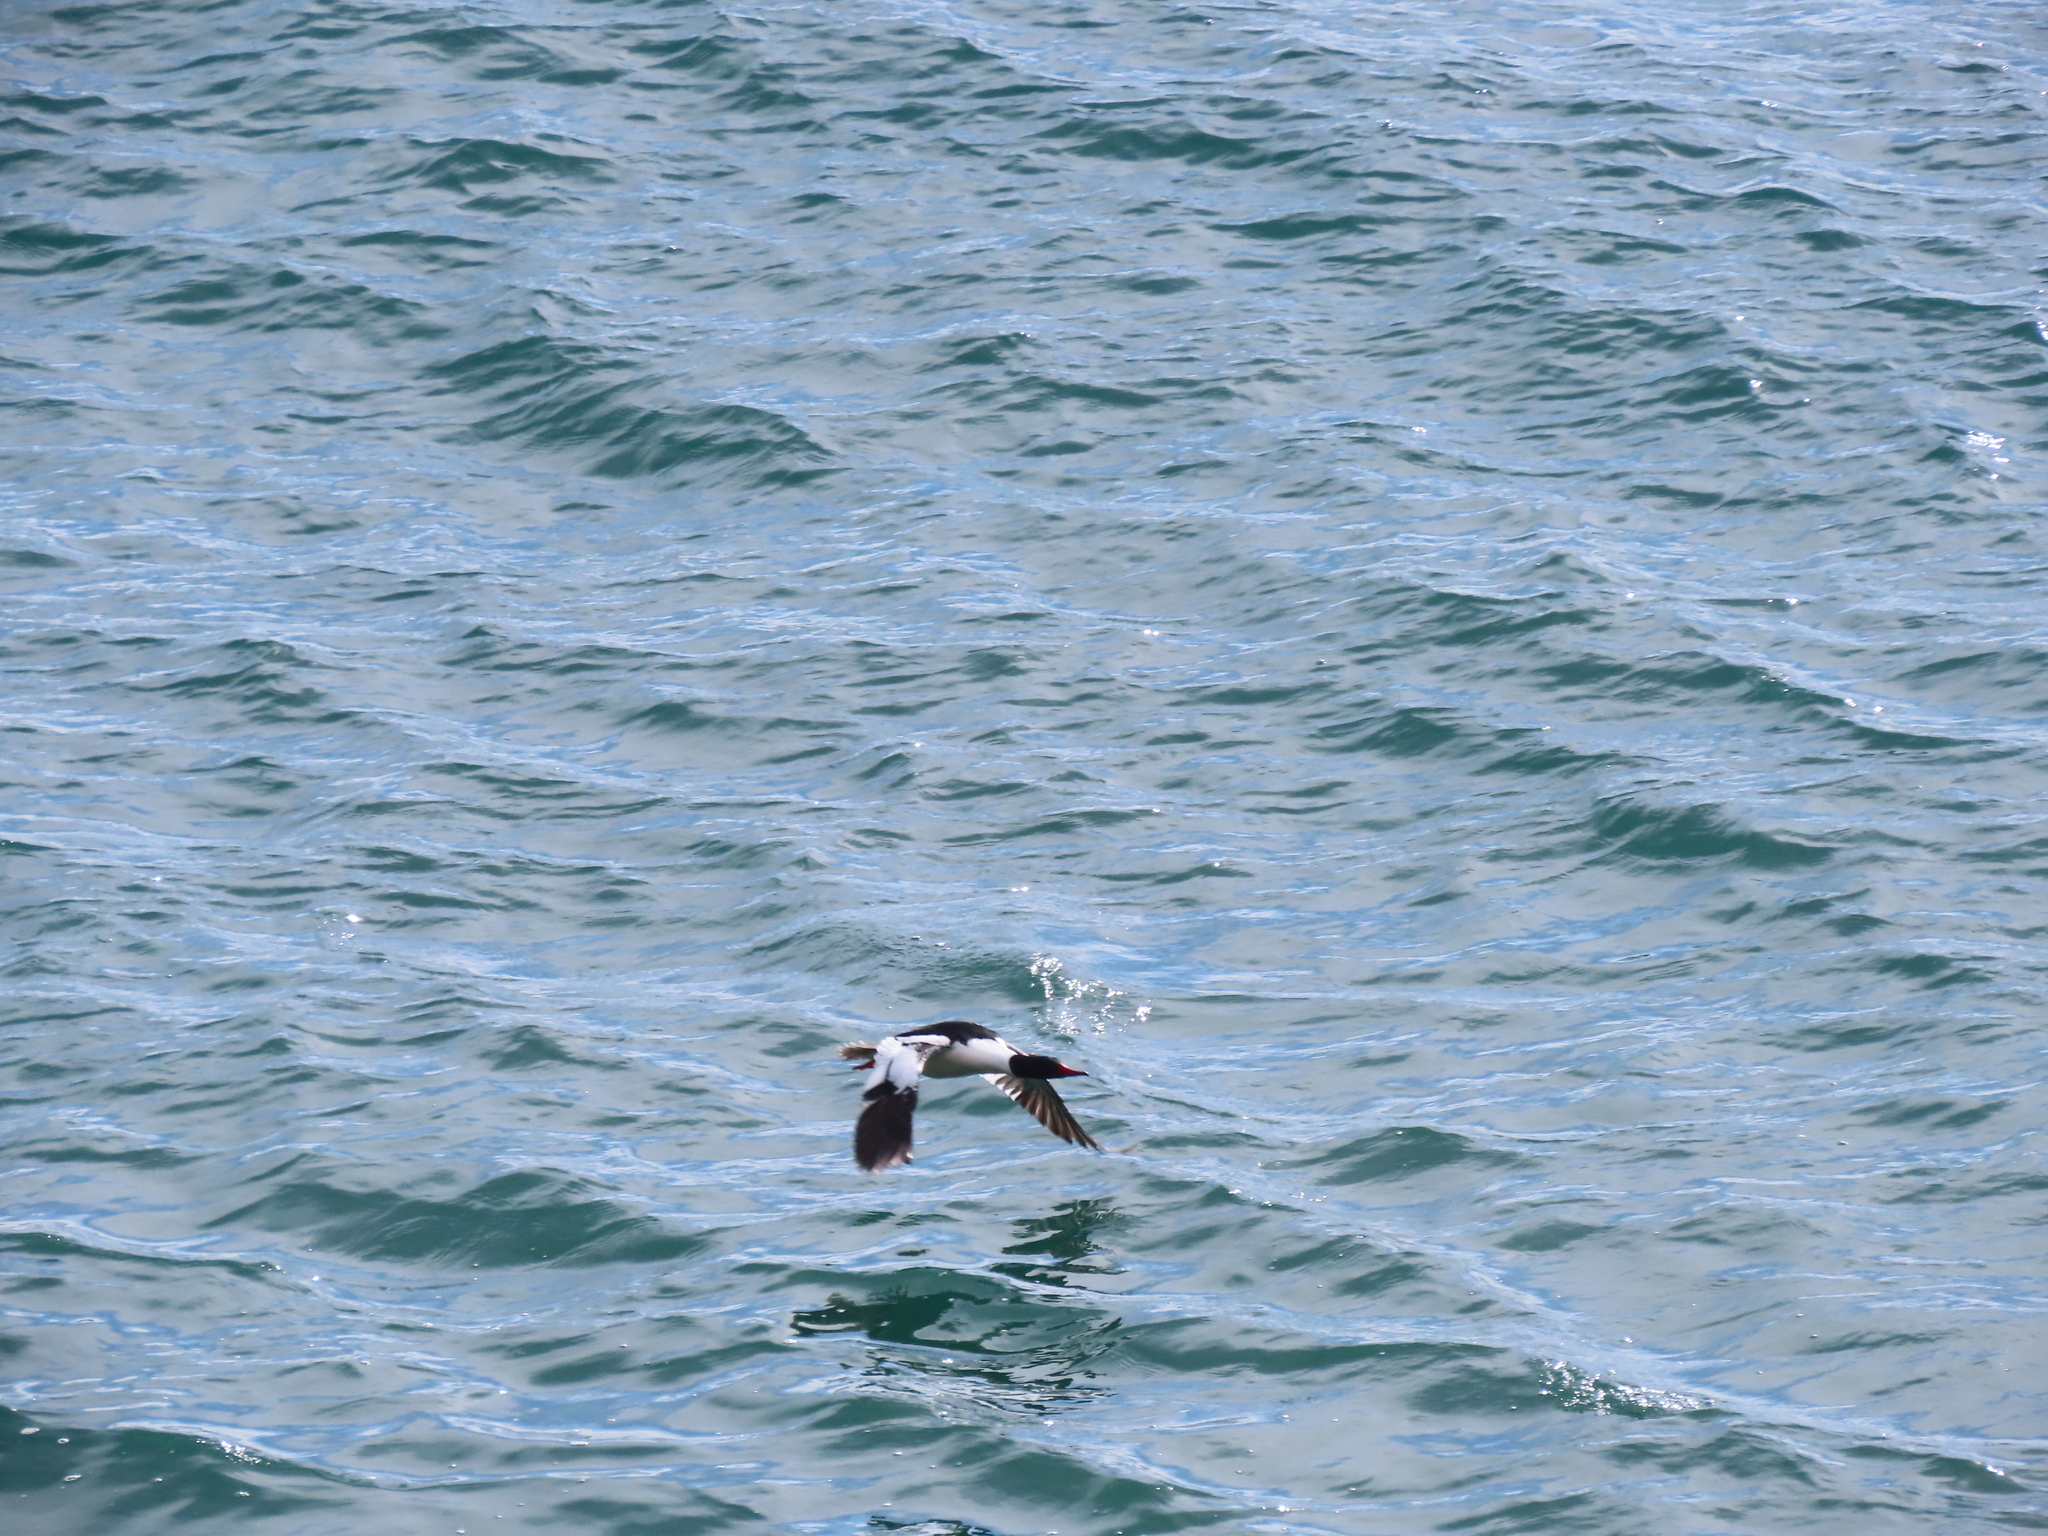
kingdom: Animalia
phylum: Chordata
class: Aves
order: Anseriformes
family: Anatidae
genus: Mergus
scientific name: Mergus merganser
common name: Common merganser
